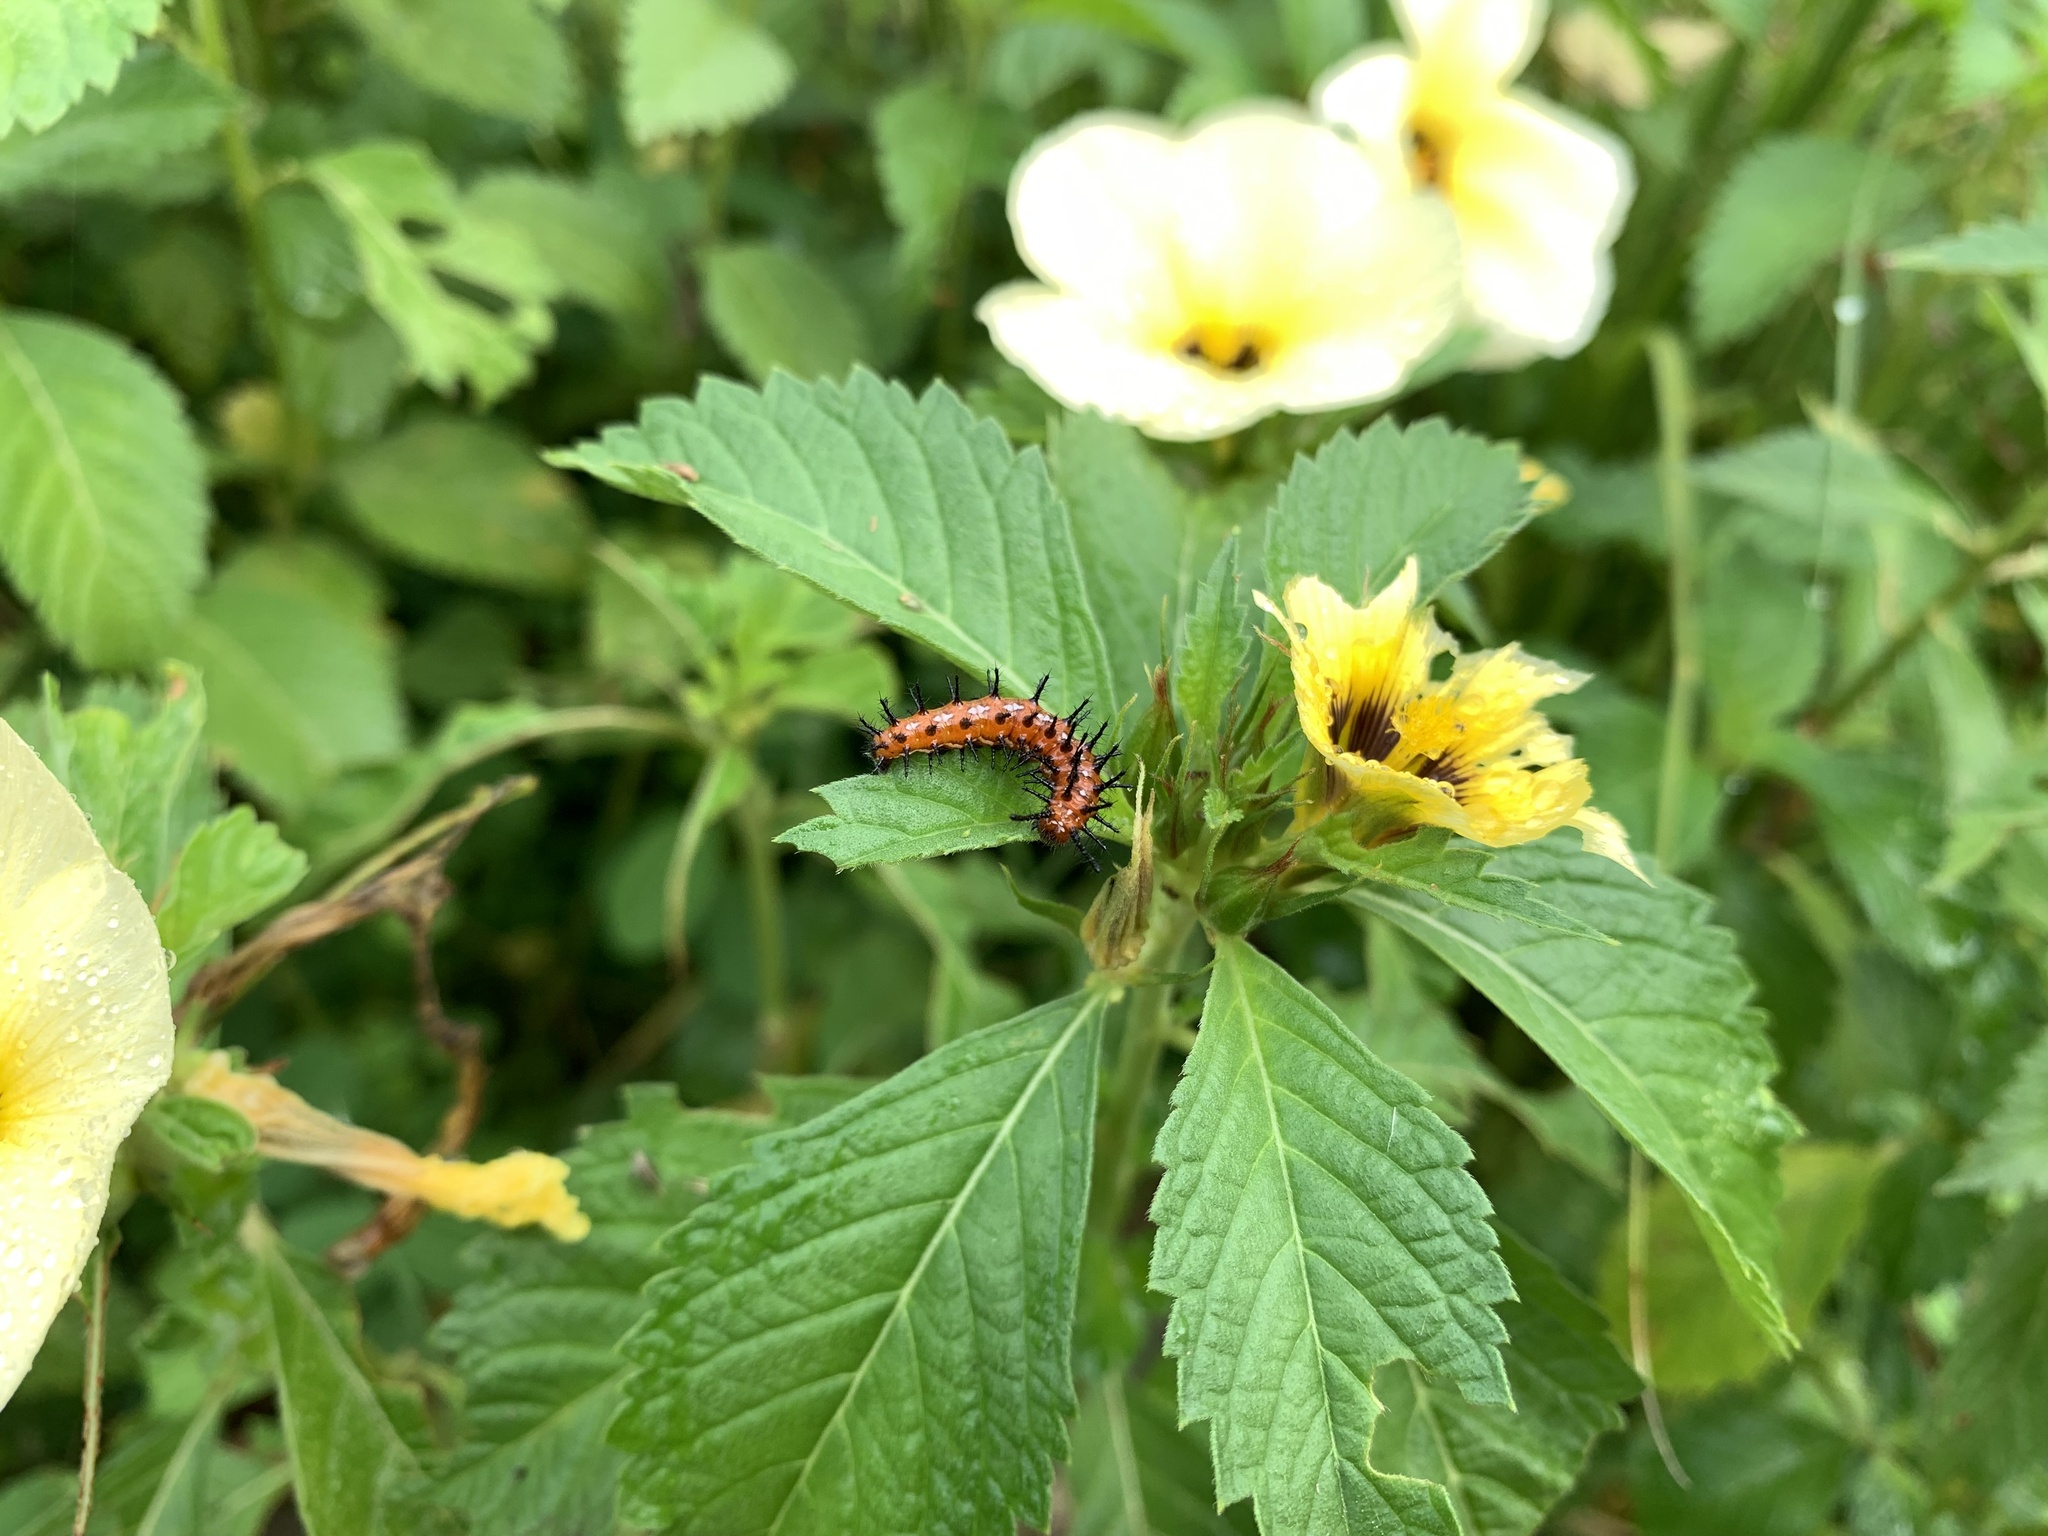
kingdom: Animalia
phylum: Arthropoda
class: Insecta
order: Lepidoptera
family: Nymphalidae
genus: Euptoieta
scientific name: Euptoieta hegesia
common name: Mexican fritillary
